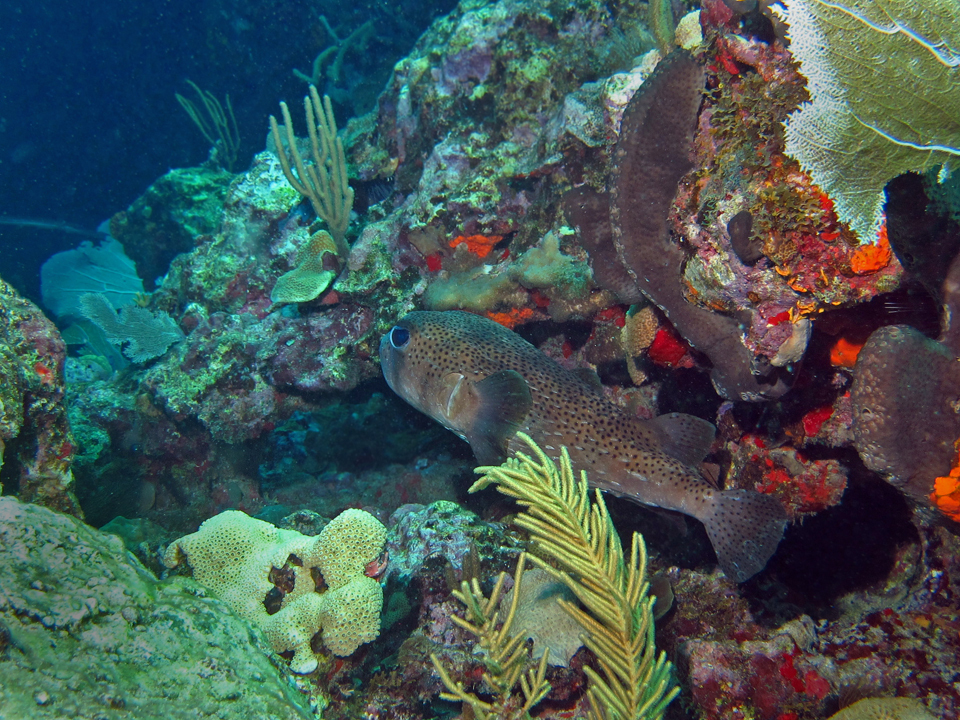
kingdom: Animalia
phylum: Chordata
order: Tetraodontiformes
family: Diodontidae
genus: Diodon
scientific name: Diodon hystrix
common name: Giant porcupinefish
